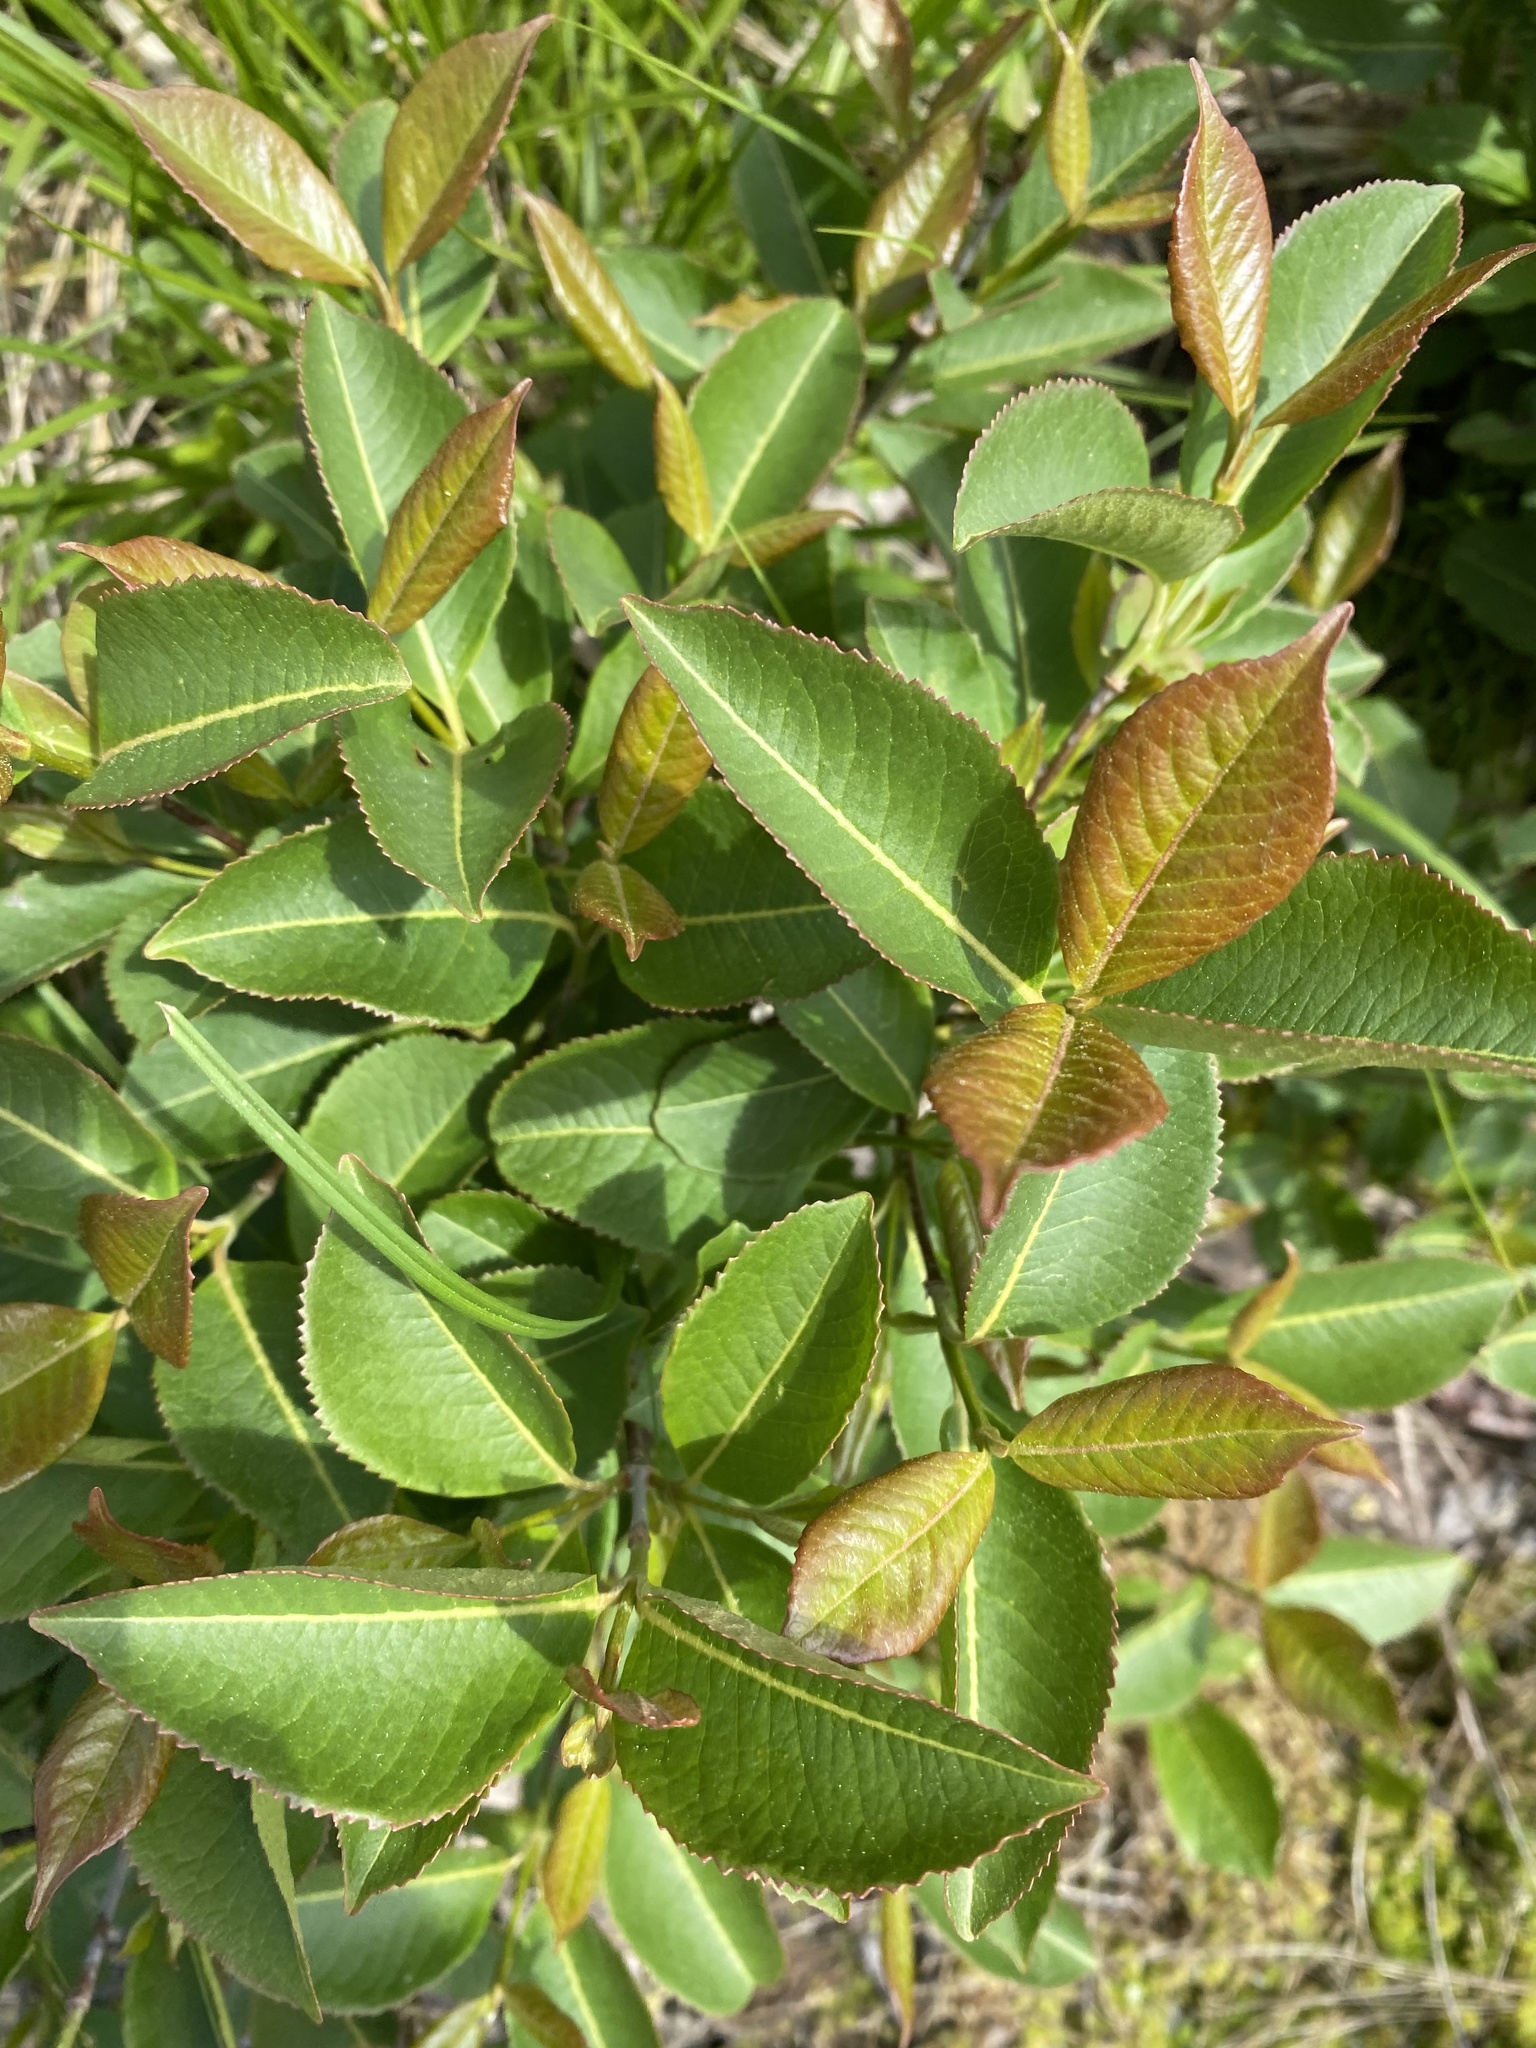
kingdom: Plantae
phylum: Tracheophyta
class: Magnoliopsida
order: Dipsacales
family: Viburnaceae
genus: Viburnum
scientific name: Viburnum cassinoides
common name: Swamp haw
